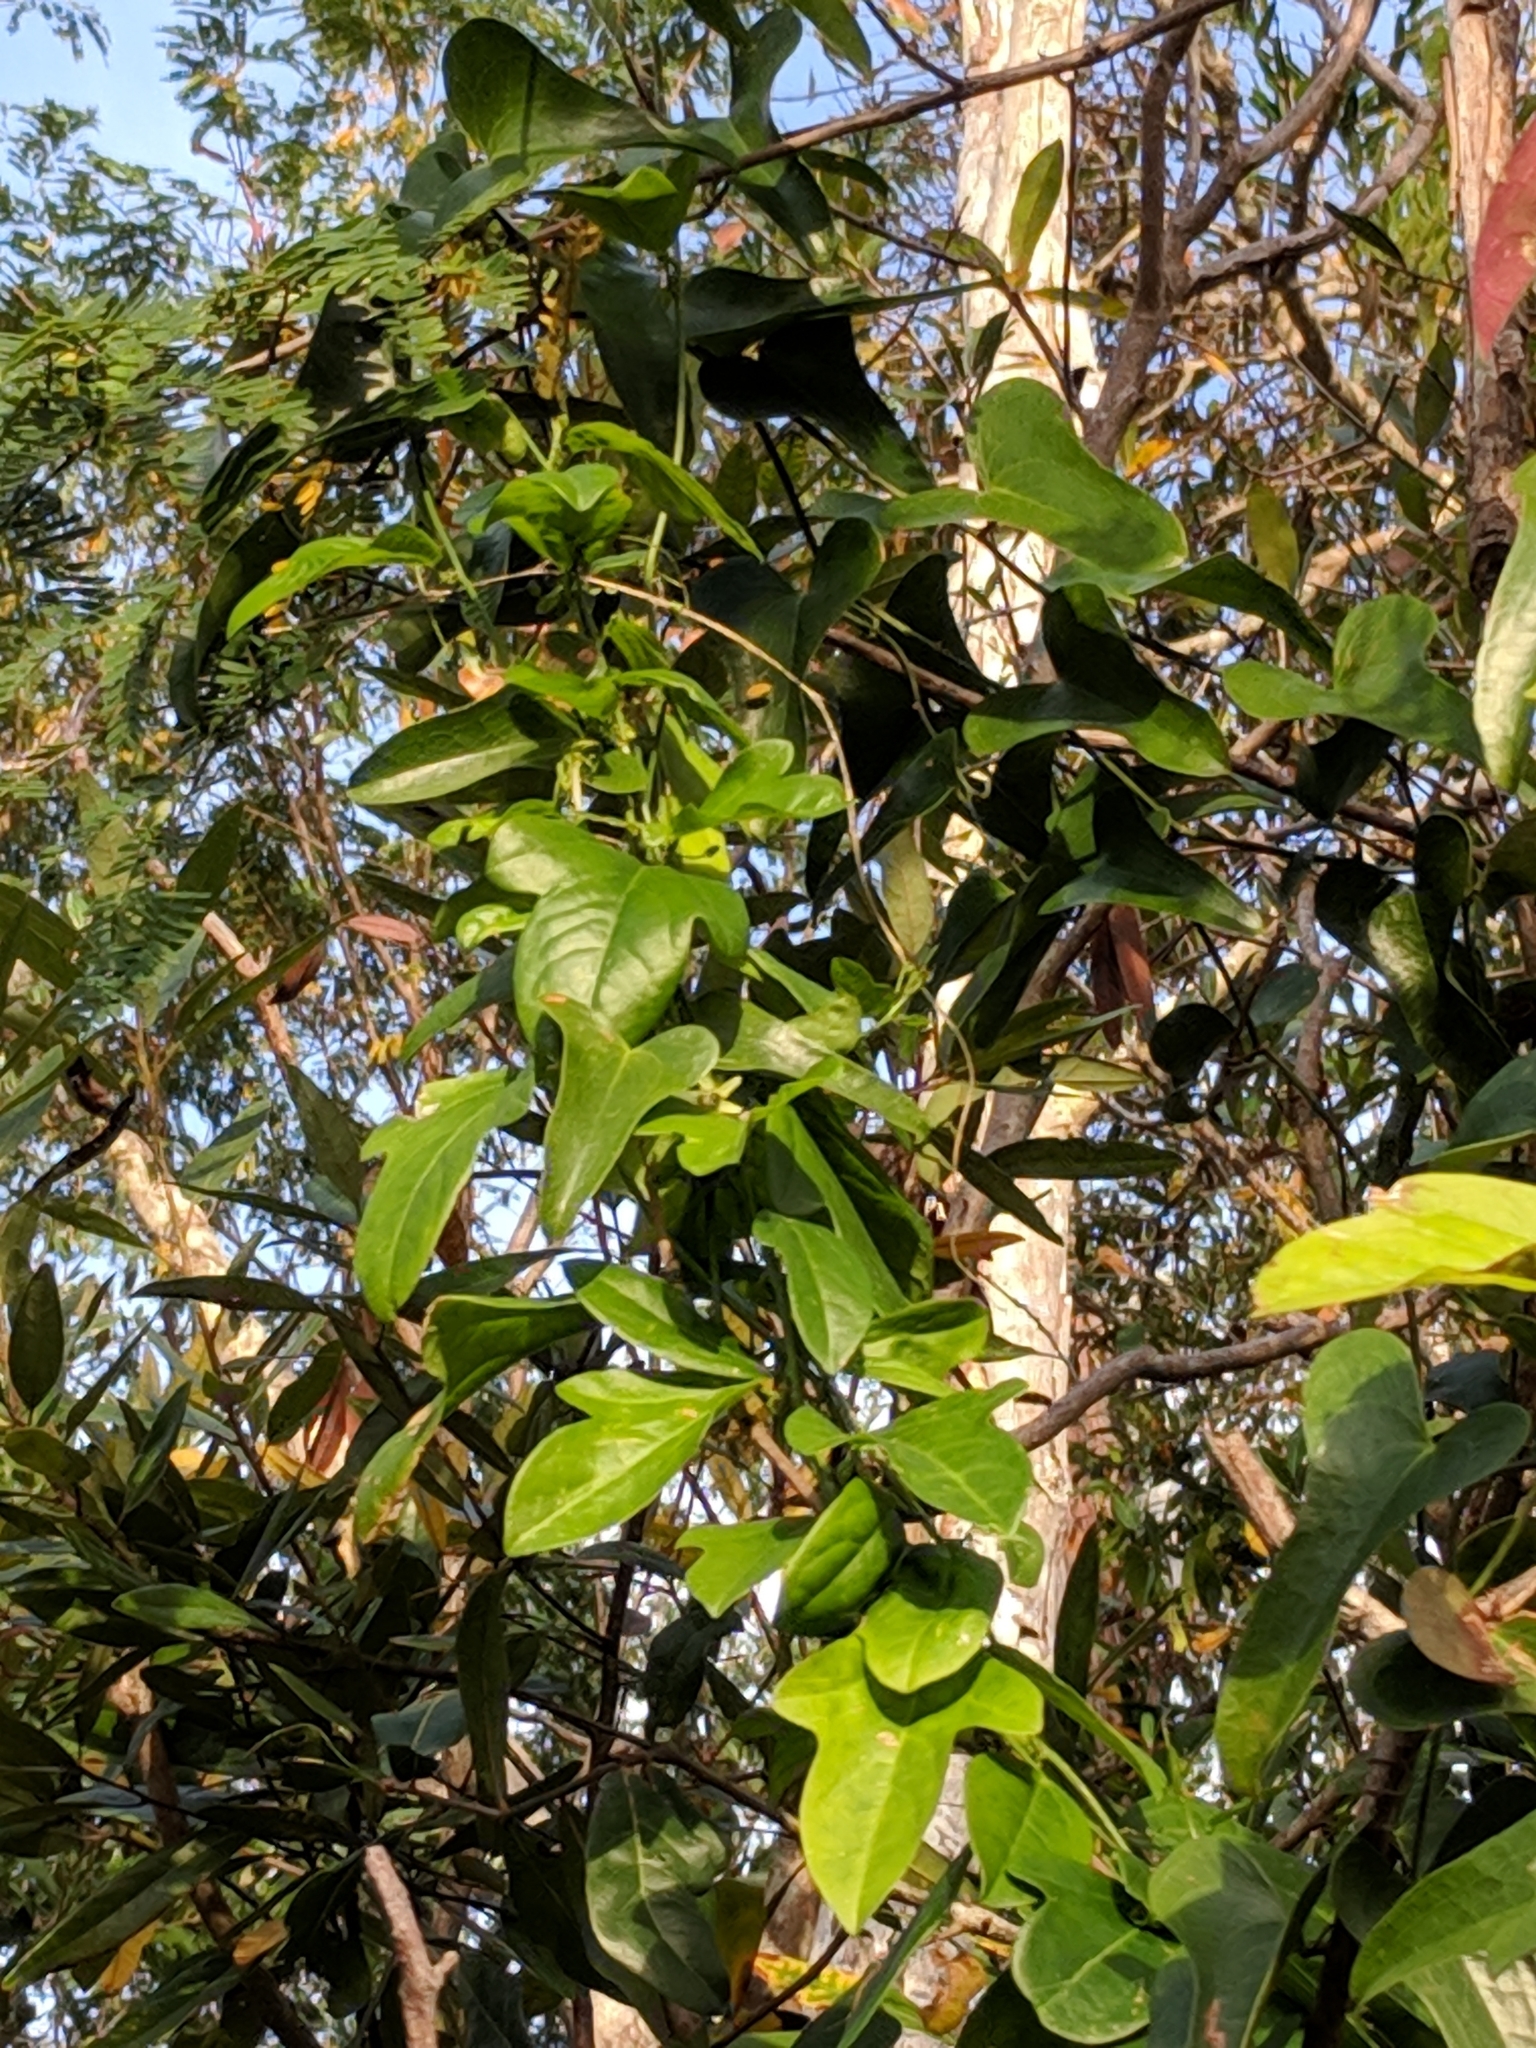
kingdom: Plantae
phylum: Tracheophyta
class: Magnoliopsida
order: Malpighiales
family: Passifloraceae
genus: Passiflora
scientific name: Passiflora pallida
